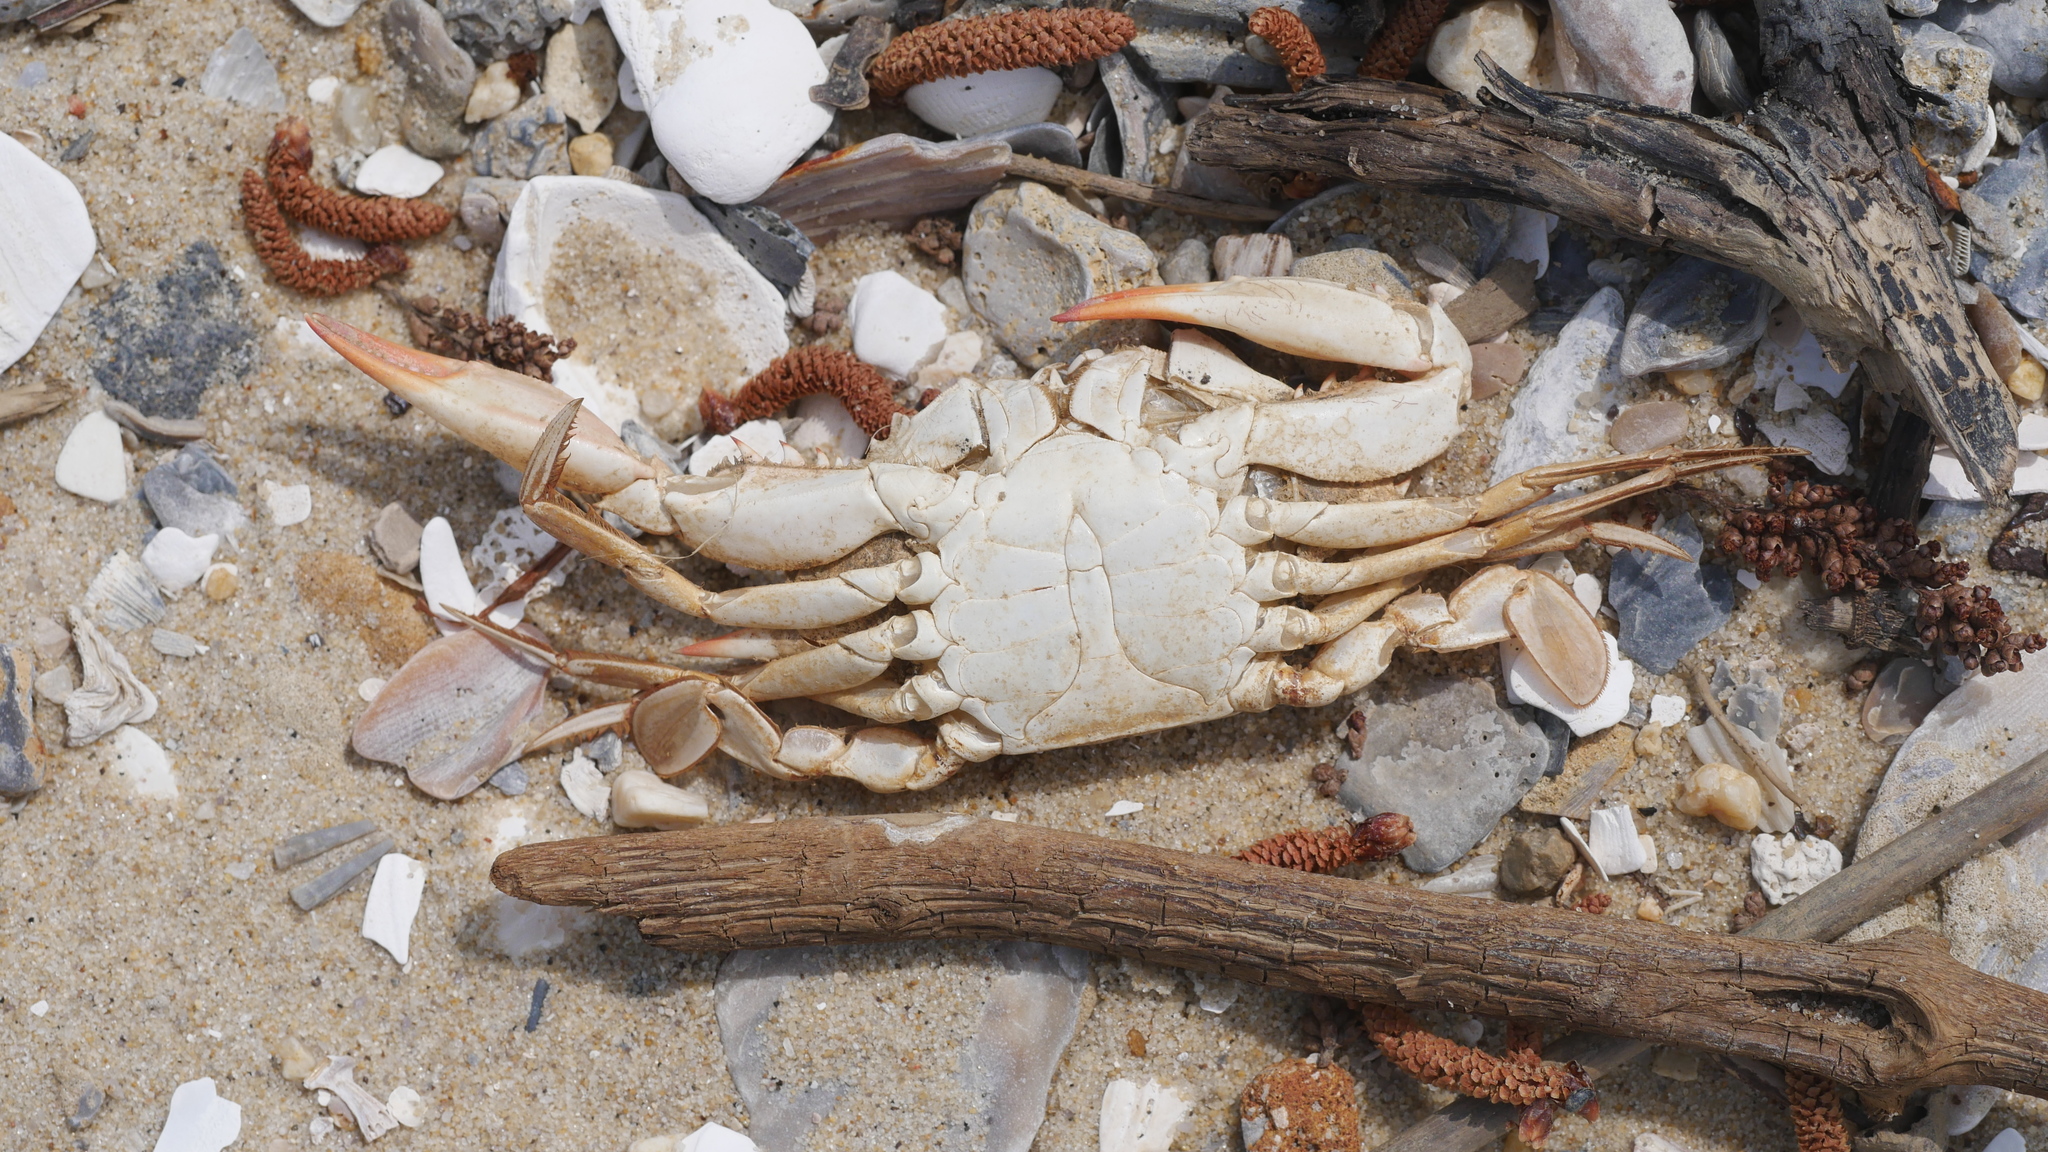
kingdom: Animalia
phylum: Arthropoda
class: Malacostraca
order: Decapoda
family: Portunidae
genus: Callinectes
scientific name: Callinectes sapidus
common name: Blue crab
